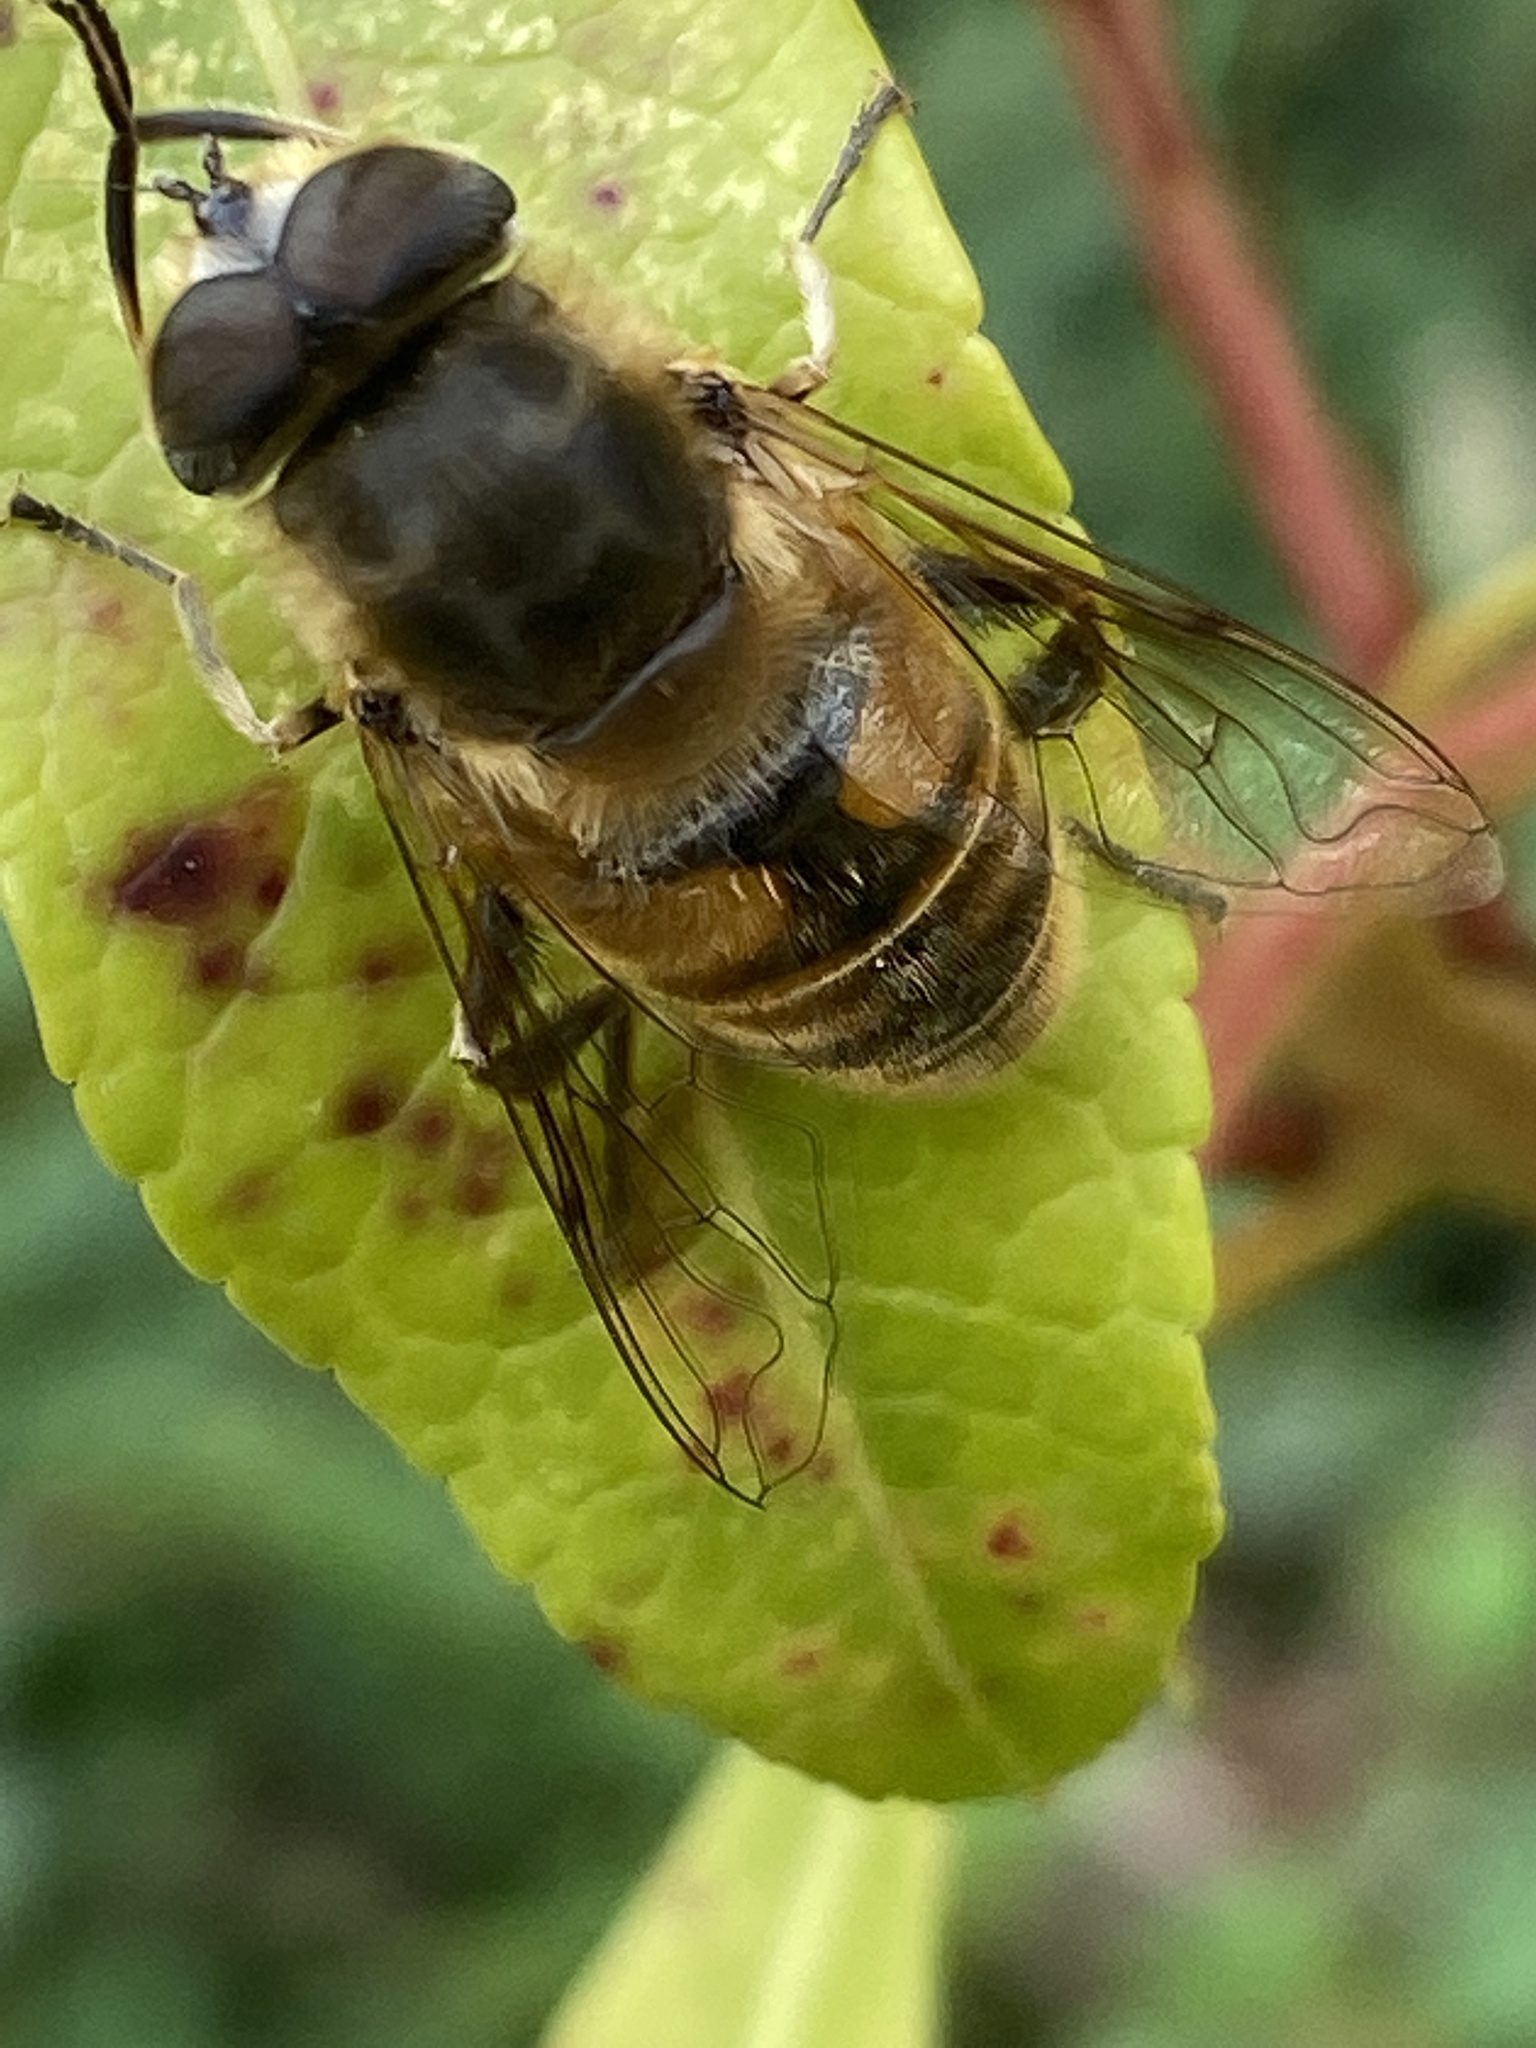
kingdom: Animalia
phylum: Arthropoda
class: Insecta
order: Diptera
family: Syrphidae
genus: Eristalis
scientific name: Eristalis tenax
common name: Drone fly
